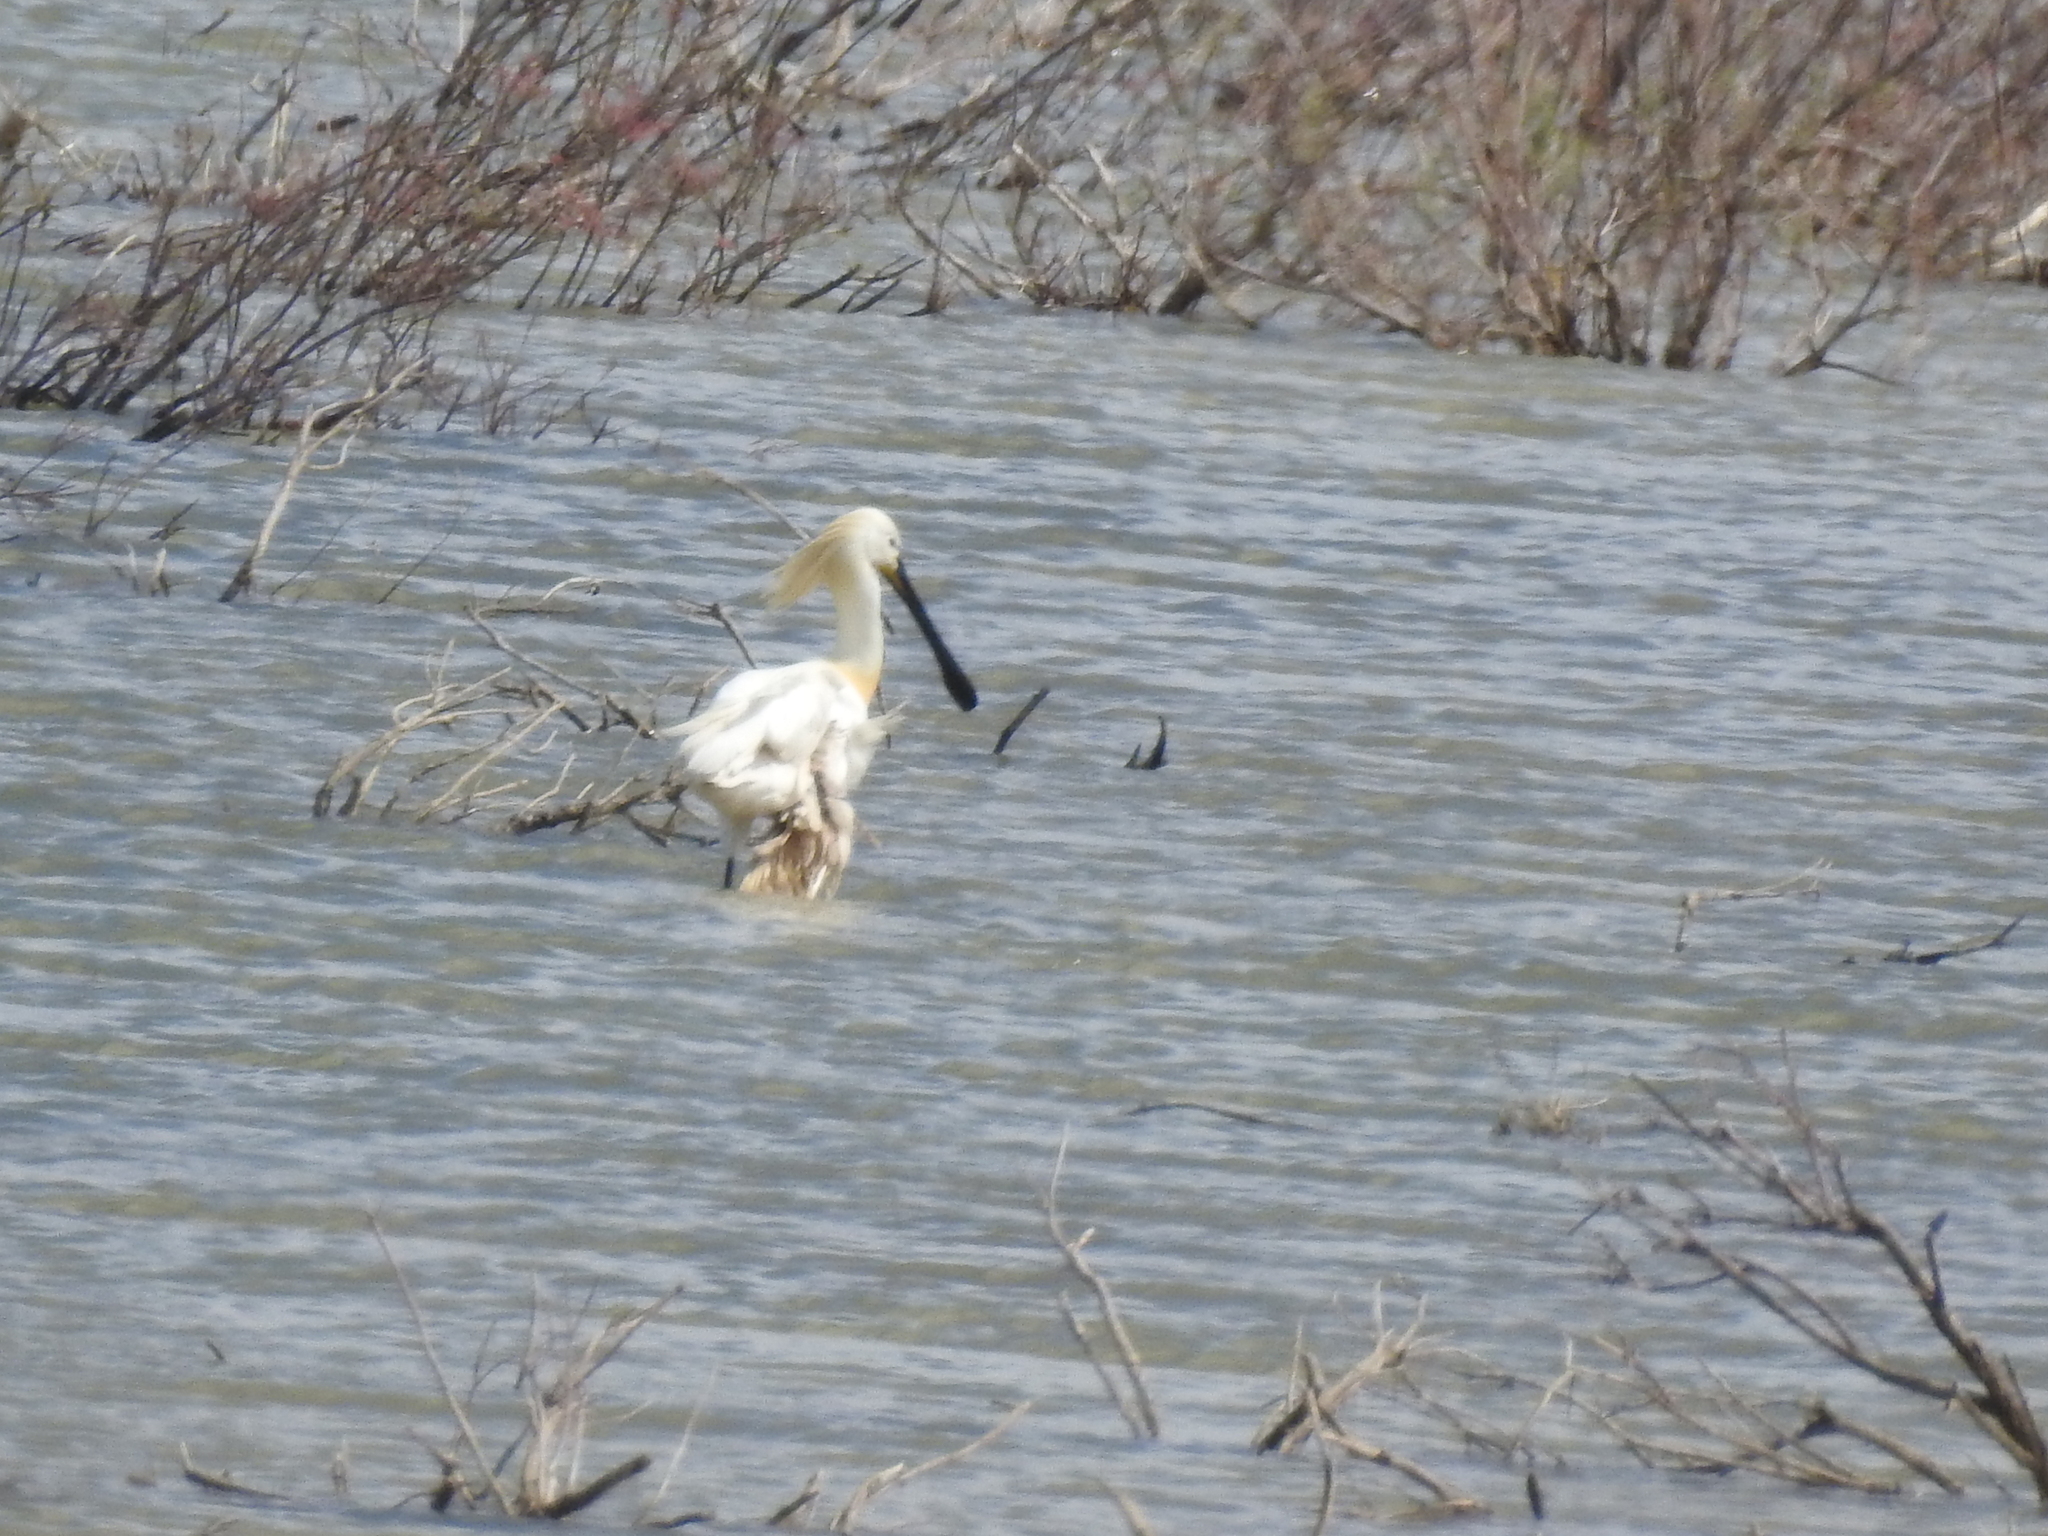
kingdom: Animalia
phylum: Chordata
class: Aves
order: Pelecaniformes
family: Threskiornithidae
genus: Platalea
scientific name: Platalea leucorodia
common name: Eurasian spoonbill
